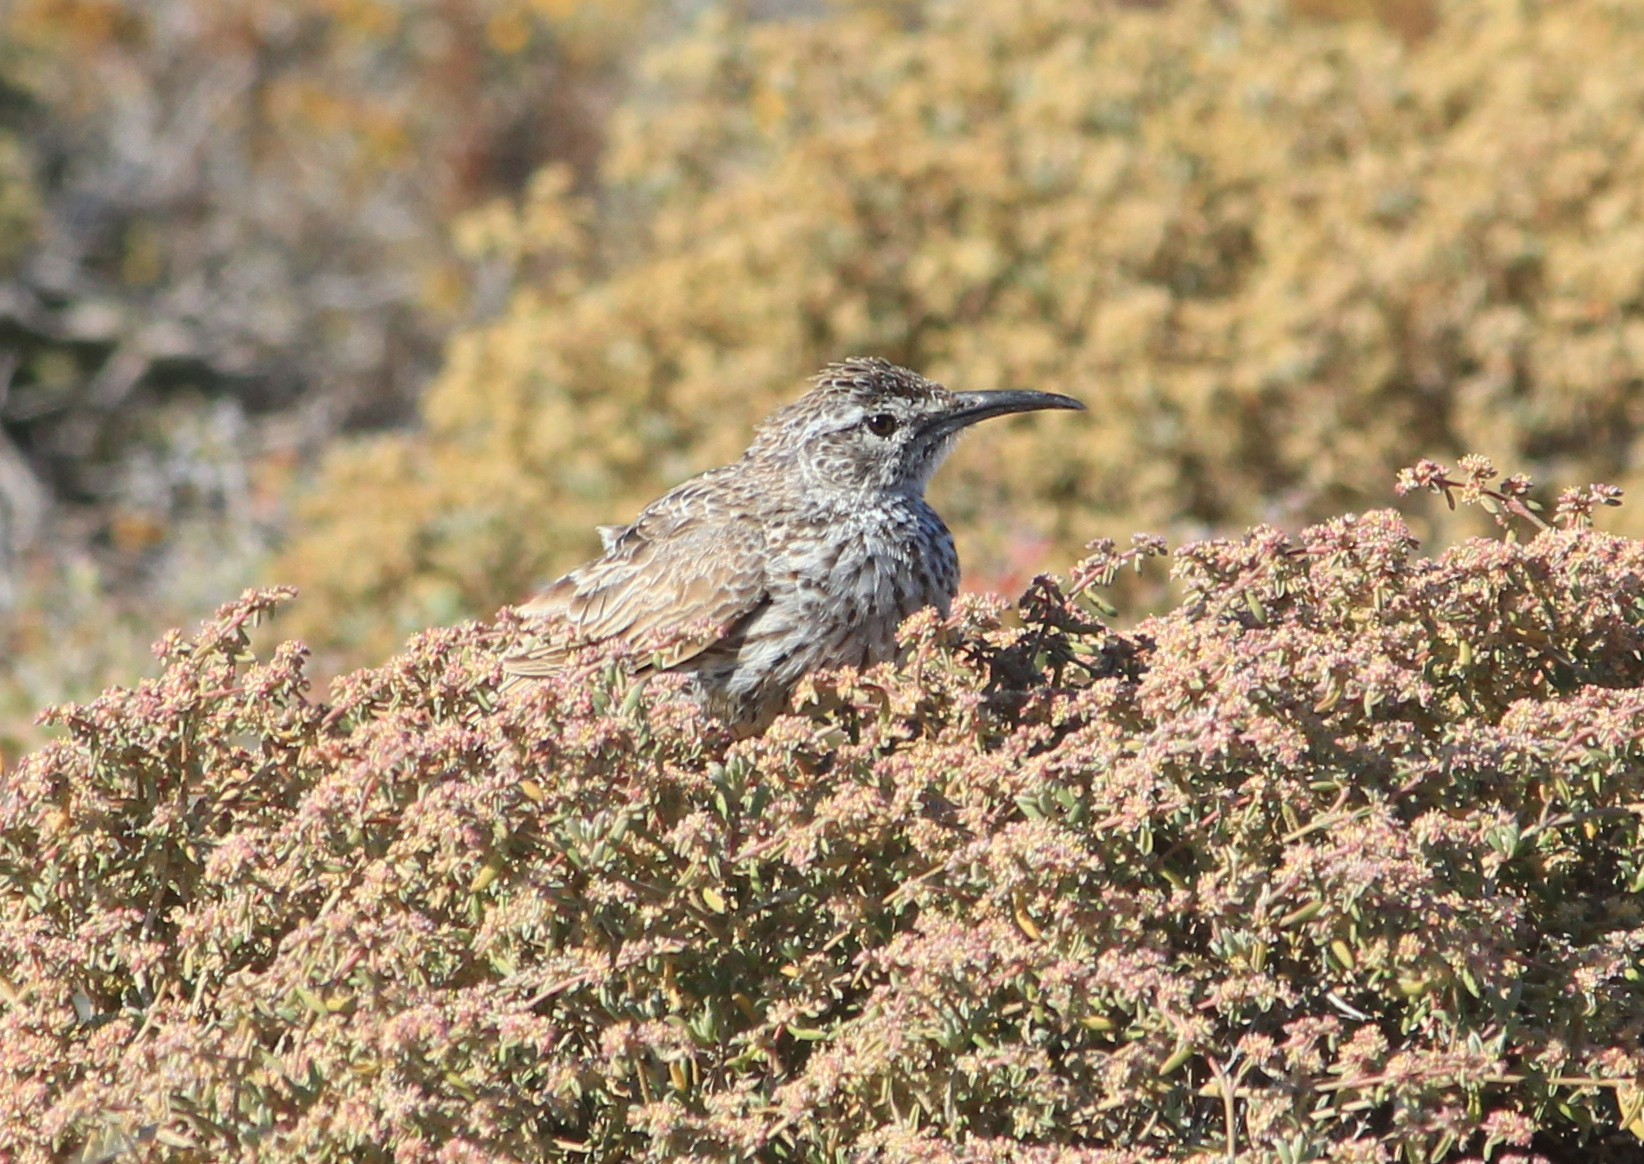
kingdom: Animalia
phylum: Chordata
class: Aves
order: Passeriformes
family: Alaudidae
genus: Certhilauda
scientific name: Certhilauda curvirostris
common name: Cape long-billed lark
